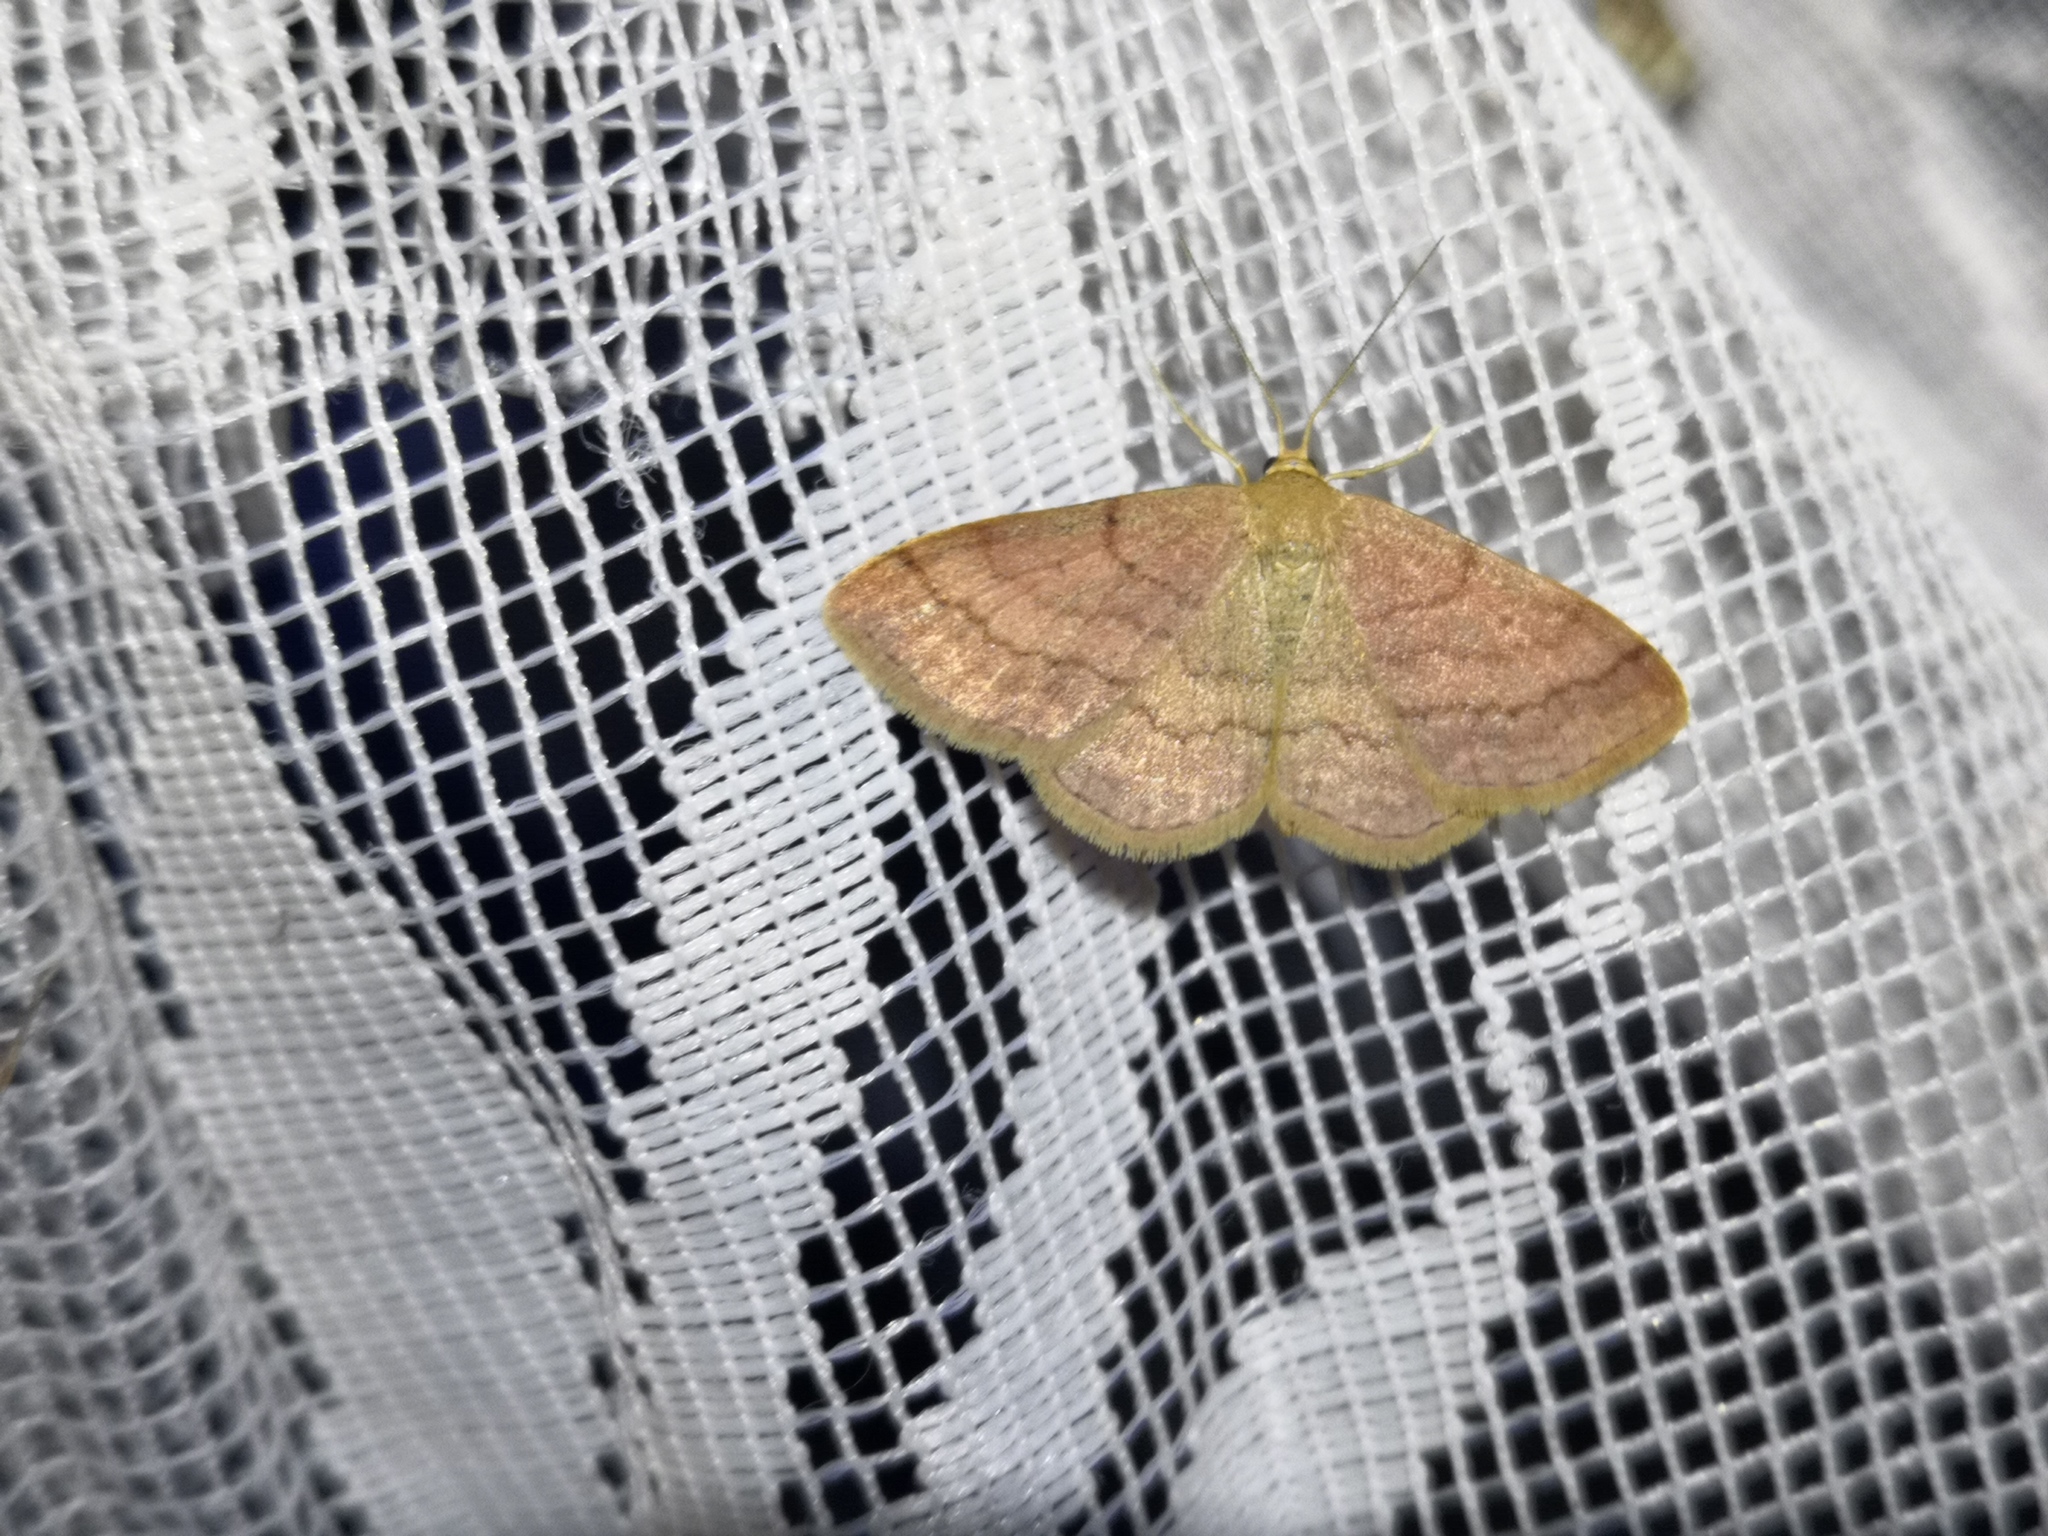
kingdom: Animalia
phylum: Arthropoda
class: Insecta
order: Lepidoptera
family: Geometridae
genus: Scopula
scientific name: Scopula rubiginata
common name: Tawny wave
